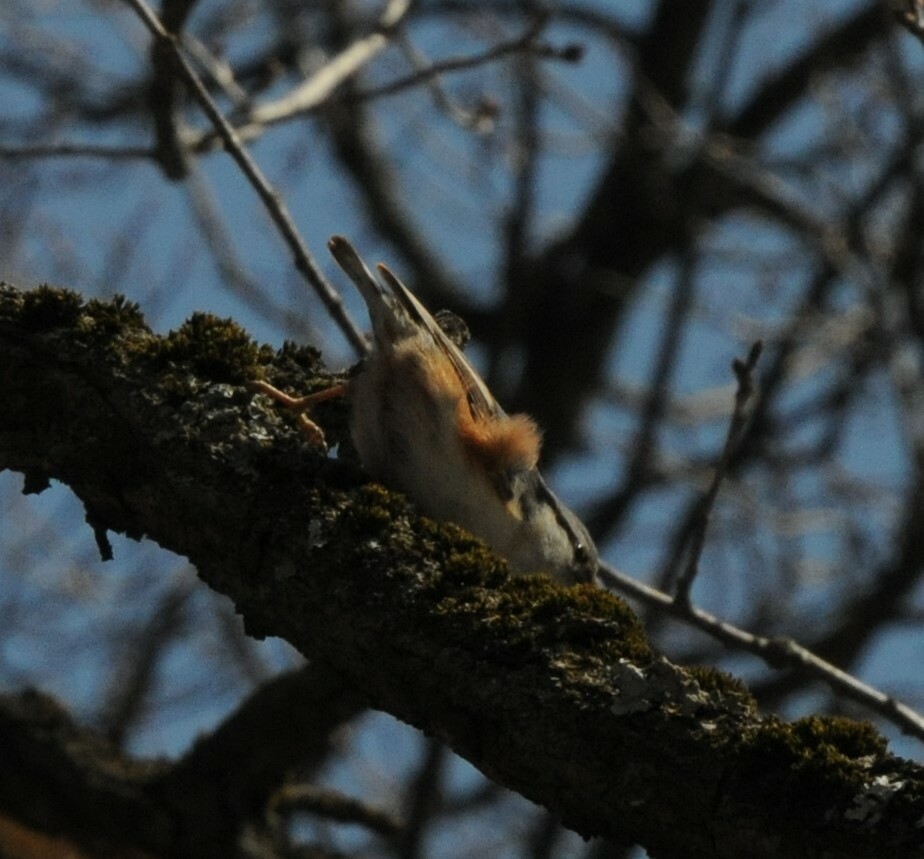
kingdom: Animalia
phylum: Chordata
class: Aves
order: Passeriformes
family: Sittidae
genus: Sitta
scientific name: Sitta europaea
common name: Eurasian nuthatch
